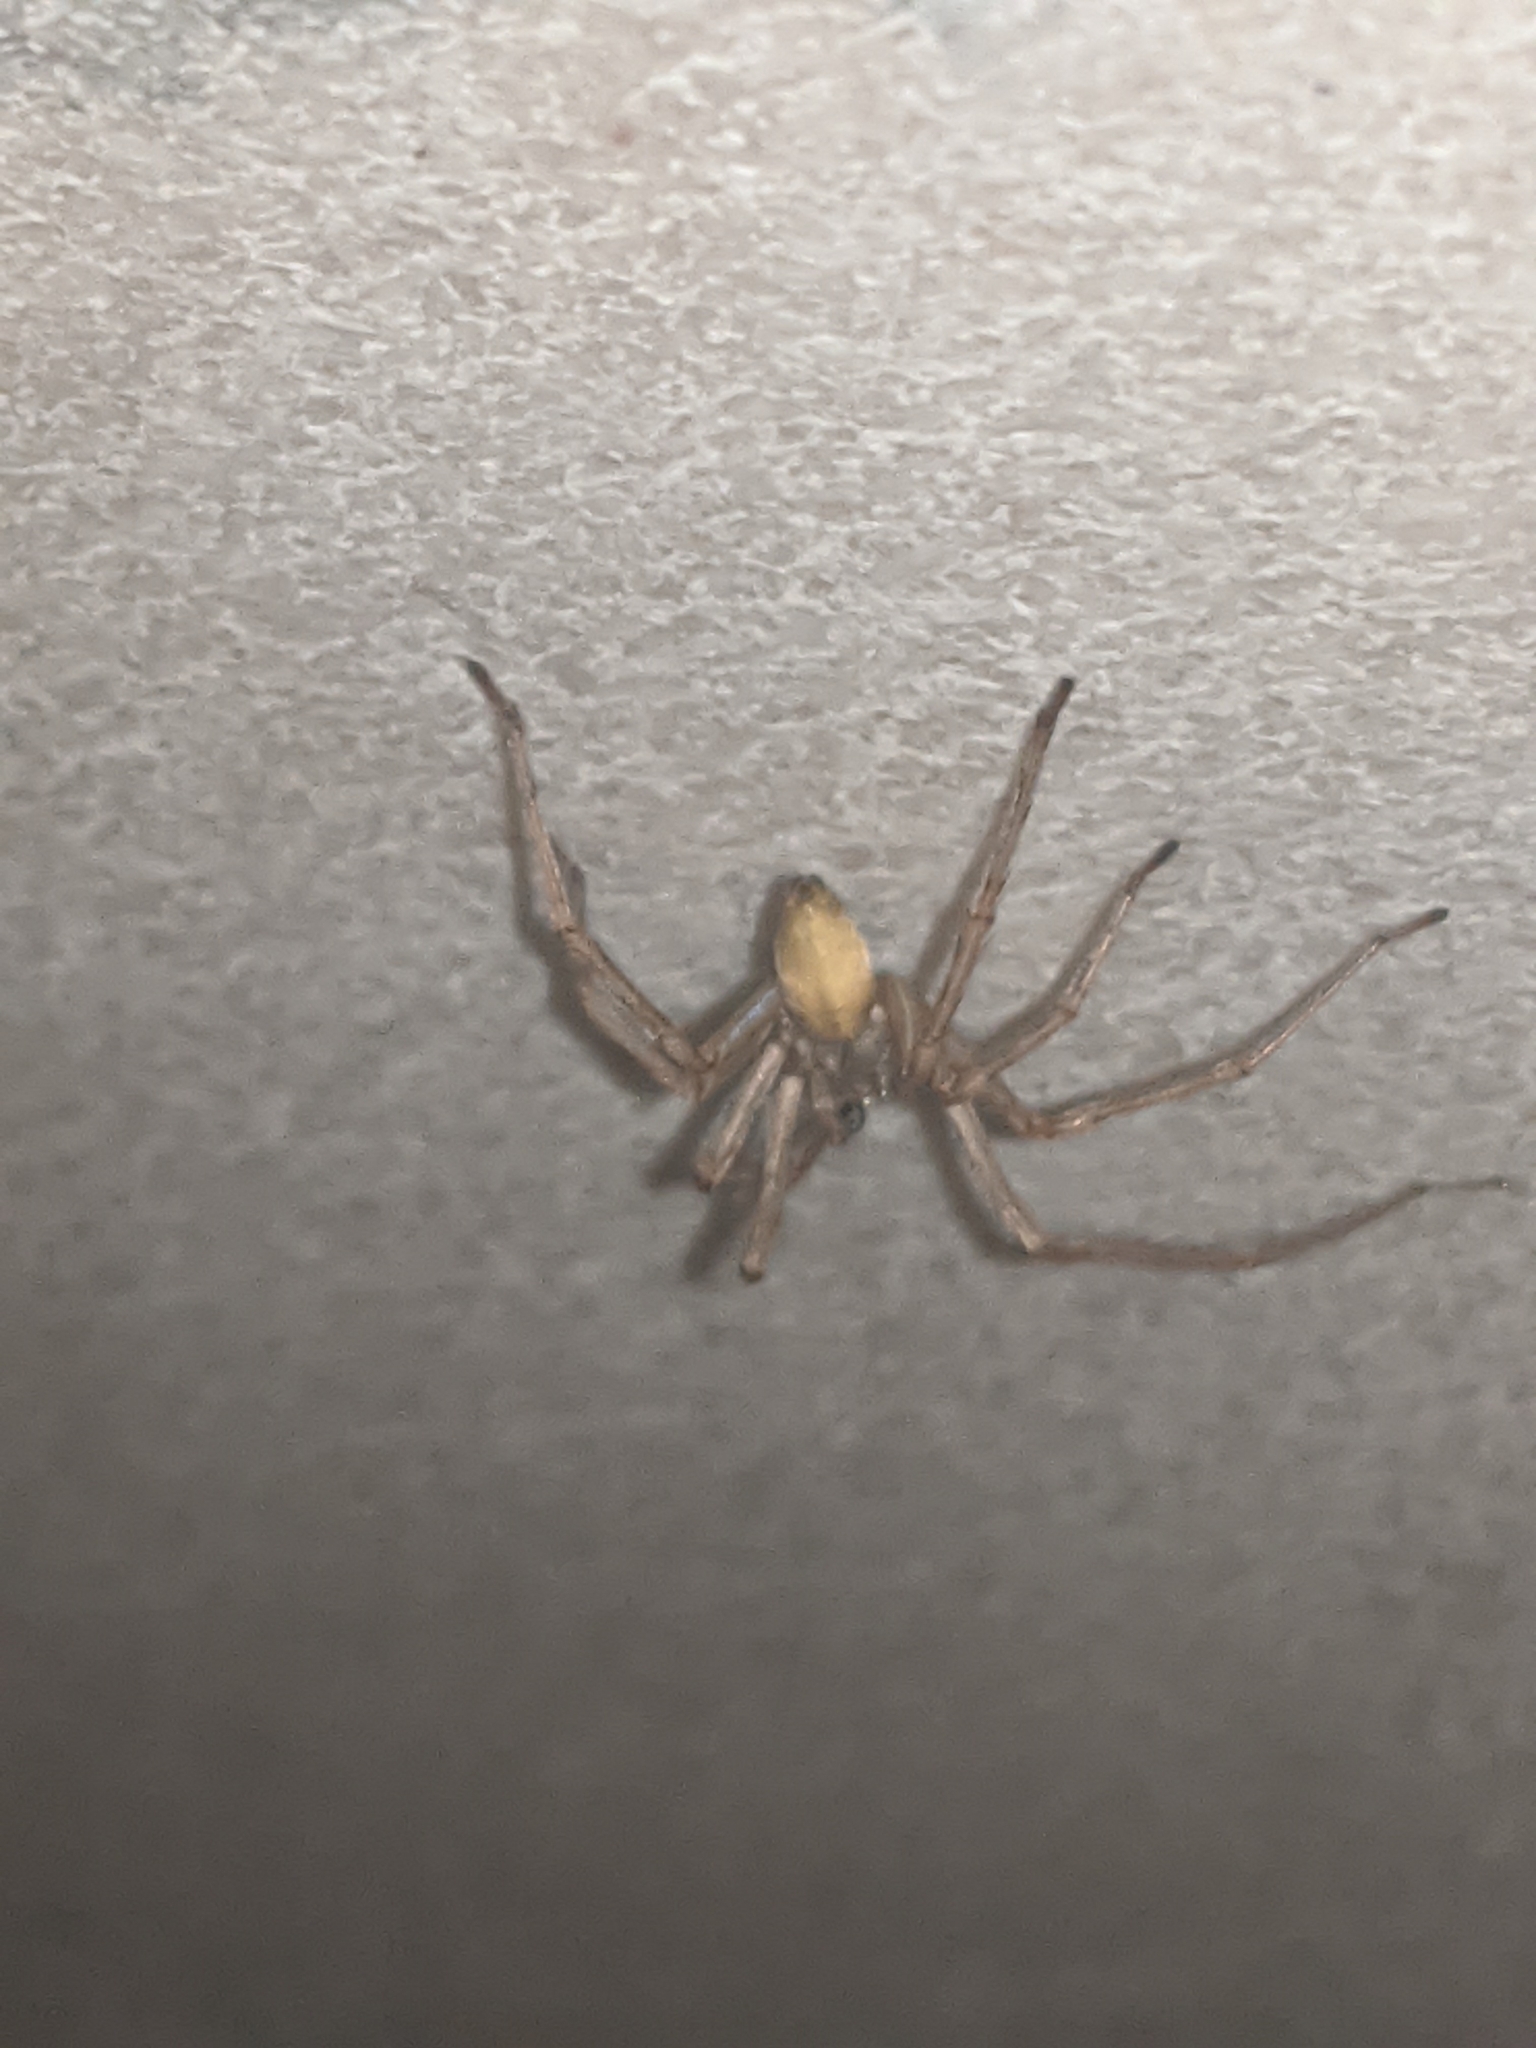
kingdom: Animalia
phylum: Arthropoda
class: Arachnida
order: Araneae
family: Cheiracanthiidae
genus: Cheiracanthium
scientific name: Cheiracanthium mildei
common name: Northern yellow sac spider
